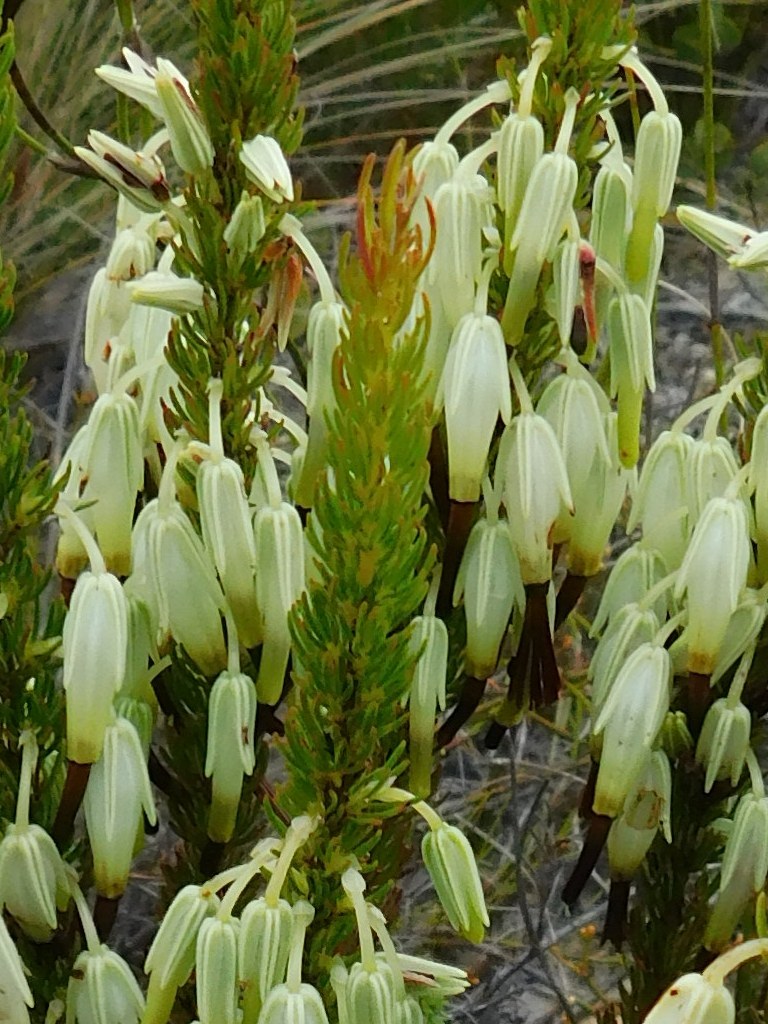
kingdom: Plantae
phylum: Tracheophyta
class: Magnoliopsida
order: Ericales
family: Ericaceae
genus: Erica
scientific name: Erica plukenetii
